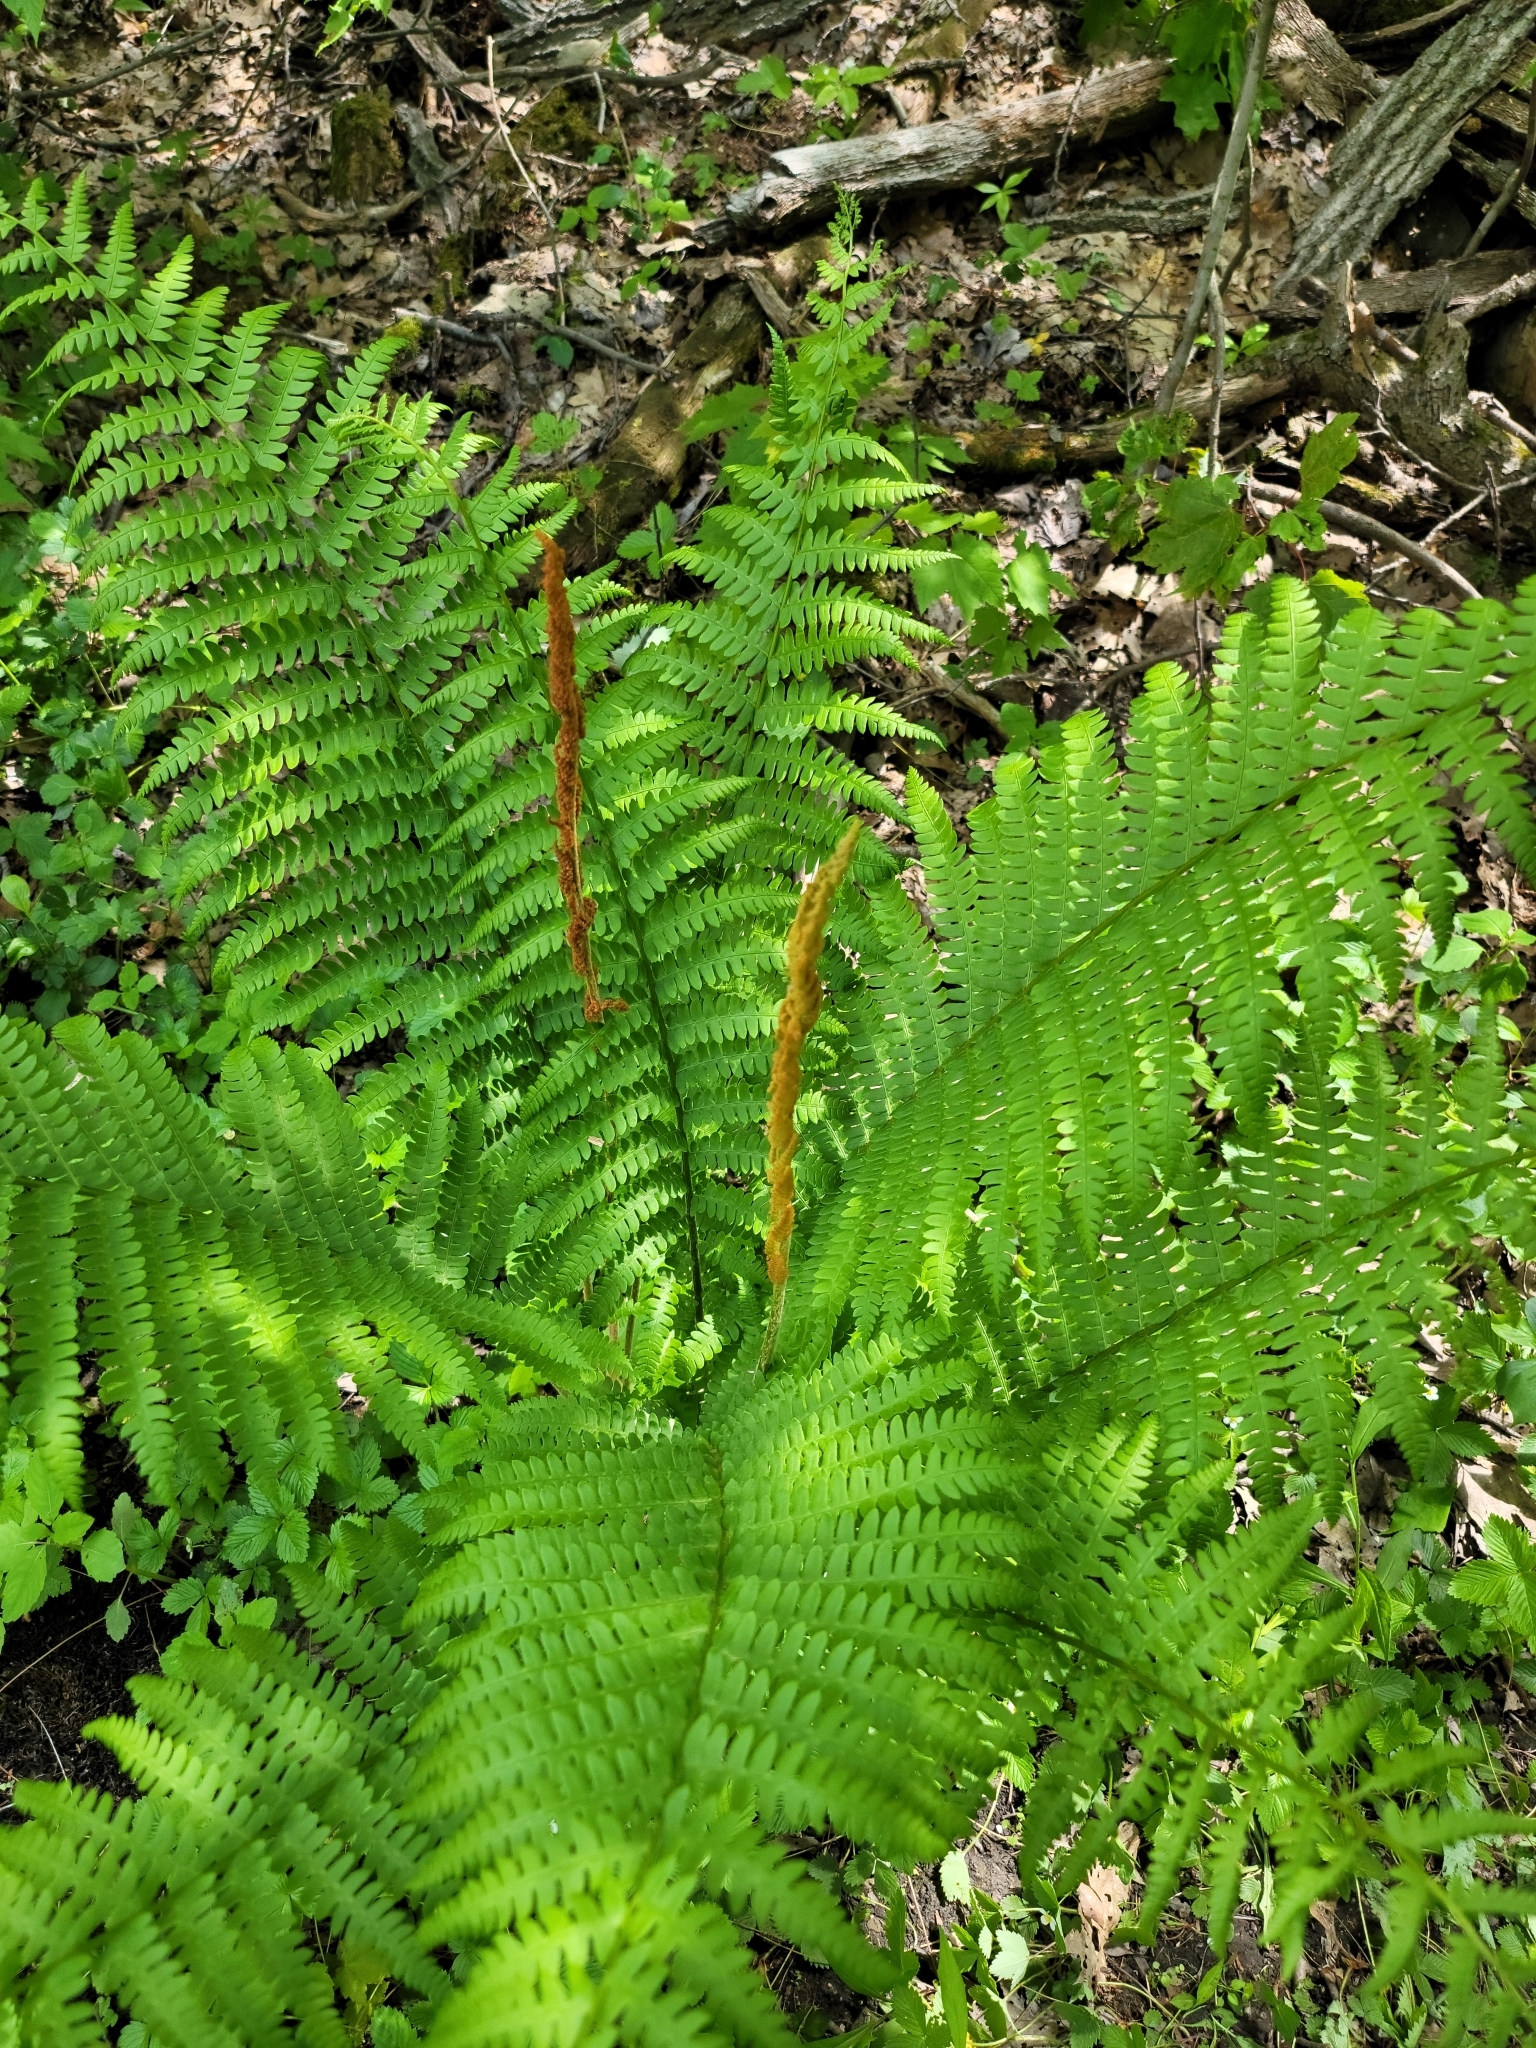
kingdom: Plantae
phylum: Tracheophyta
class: Polypodiopsida
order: Osmundales
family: Osmundaceae
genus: Osmundastrum
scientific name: Osmundastrum cinnamomeum
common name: Cinnamon fern
